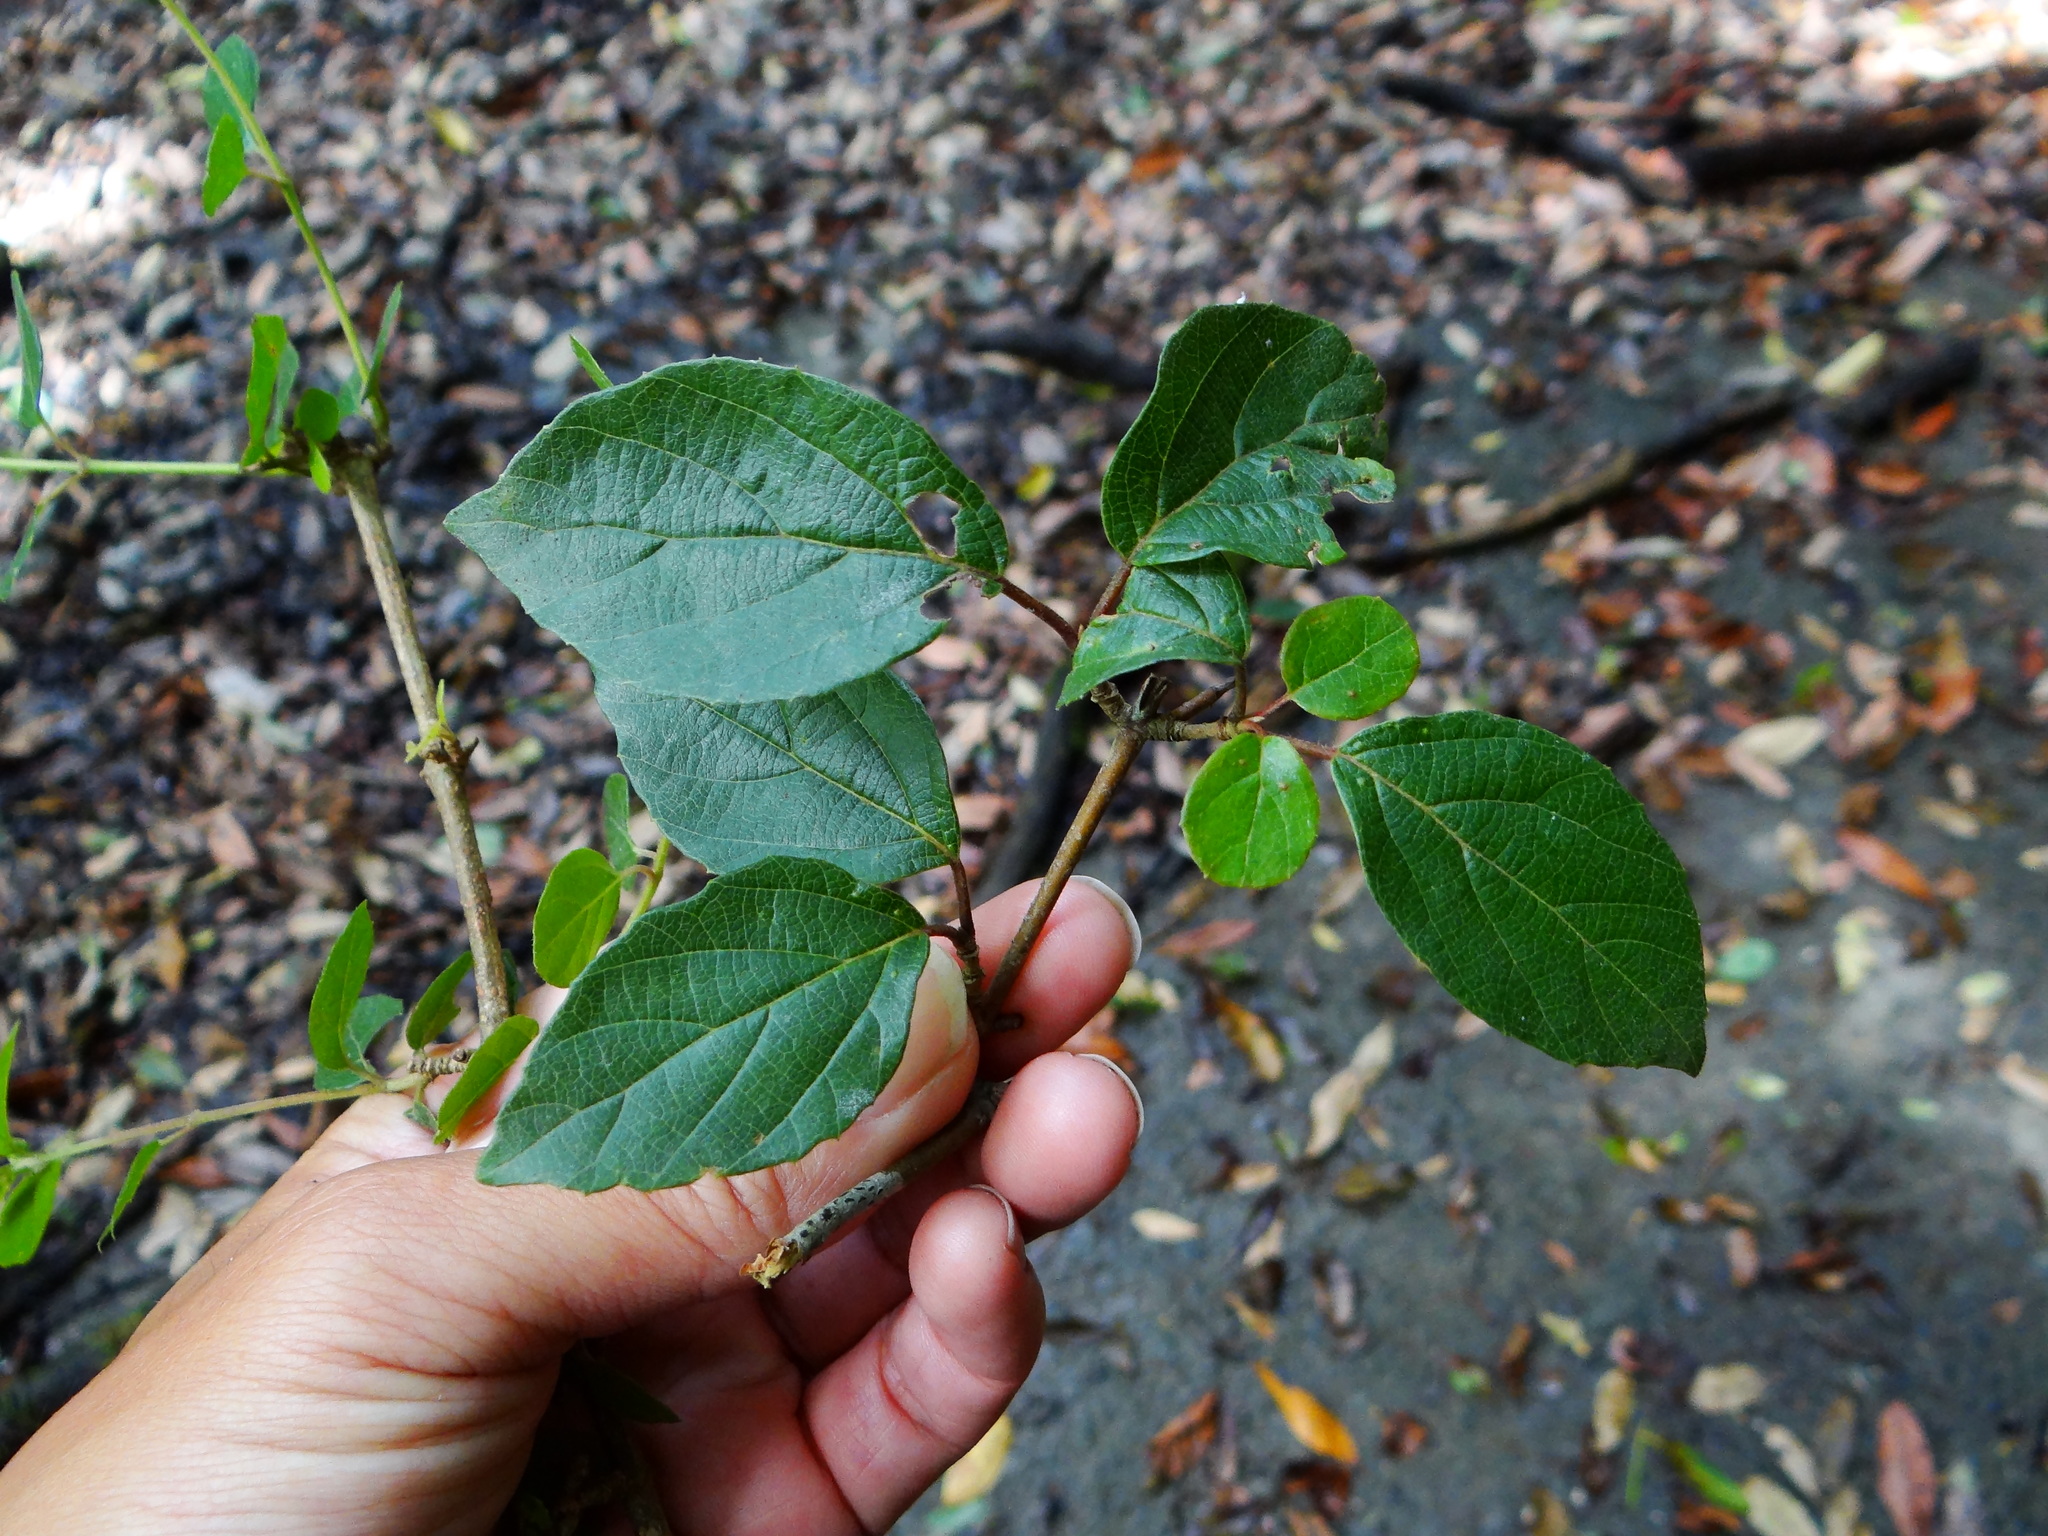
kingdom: Plantae
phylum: Tracheophyta
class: Magnoliopsida
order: Dipsacales
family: Viburnaceae
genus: Viburnum
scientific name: Viburnum luzonicum
